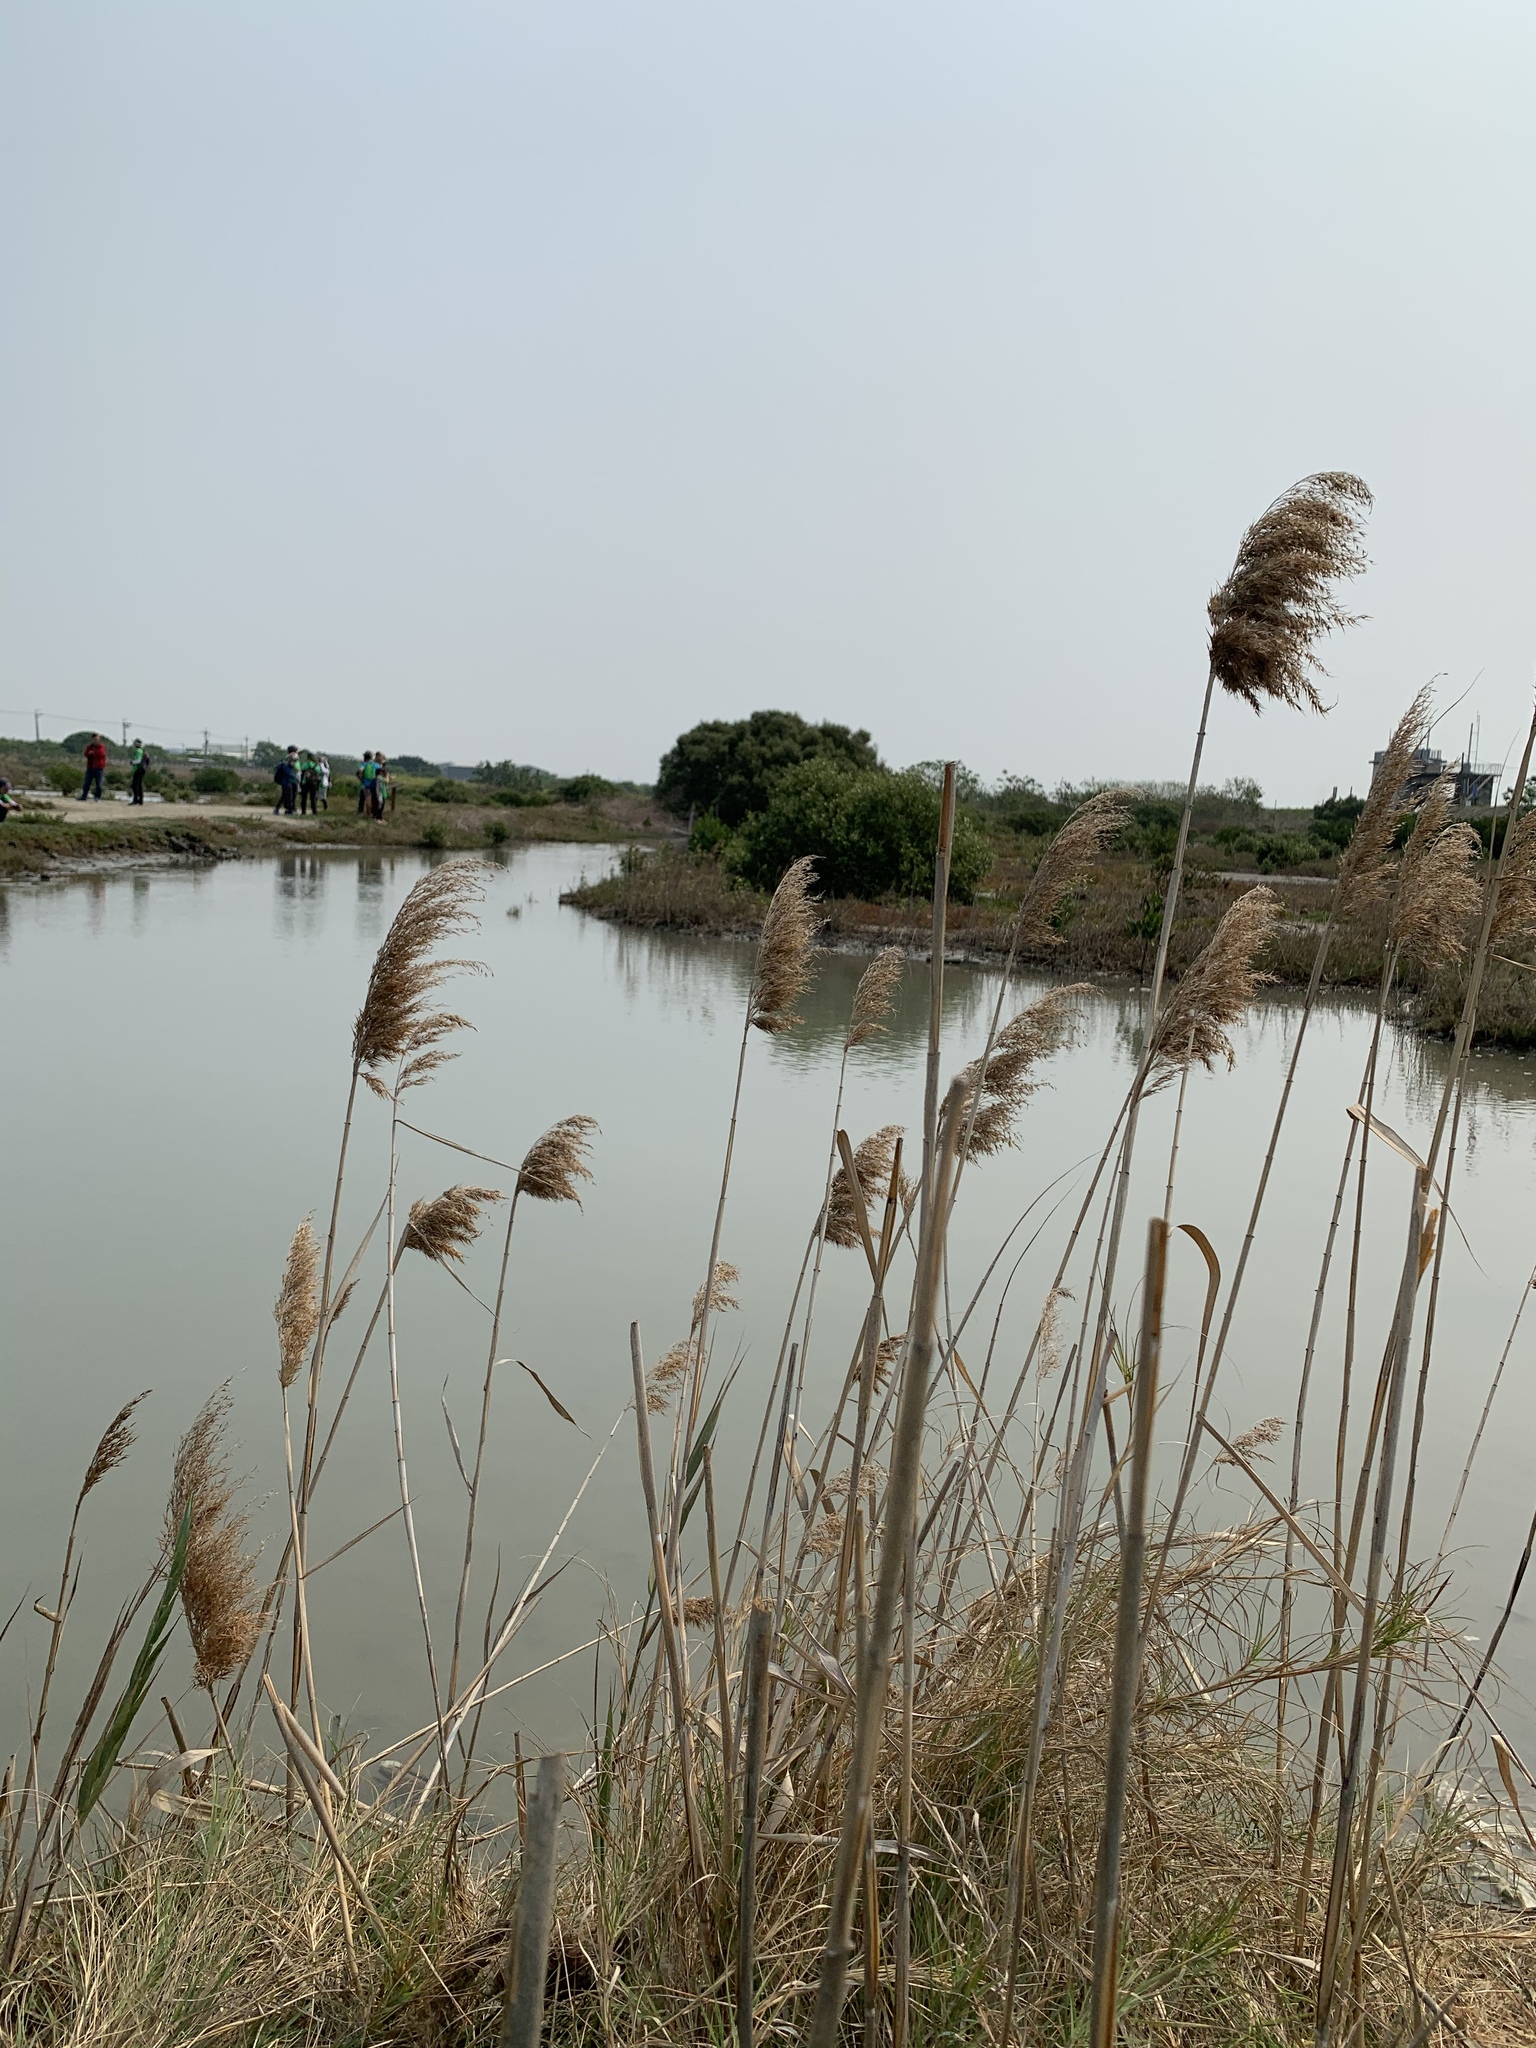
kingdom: Plantae
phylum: Tracheophyta
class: Liliopsida
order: Poales
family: Poaceae
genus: Phragmites
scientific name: Phragmites australis
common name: Common reed
